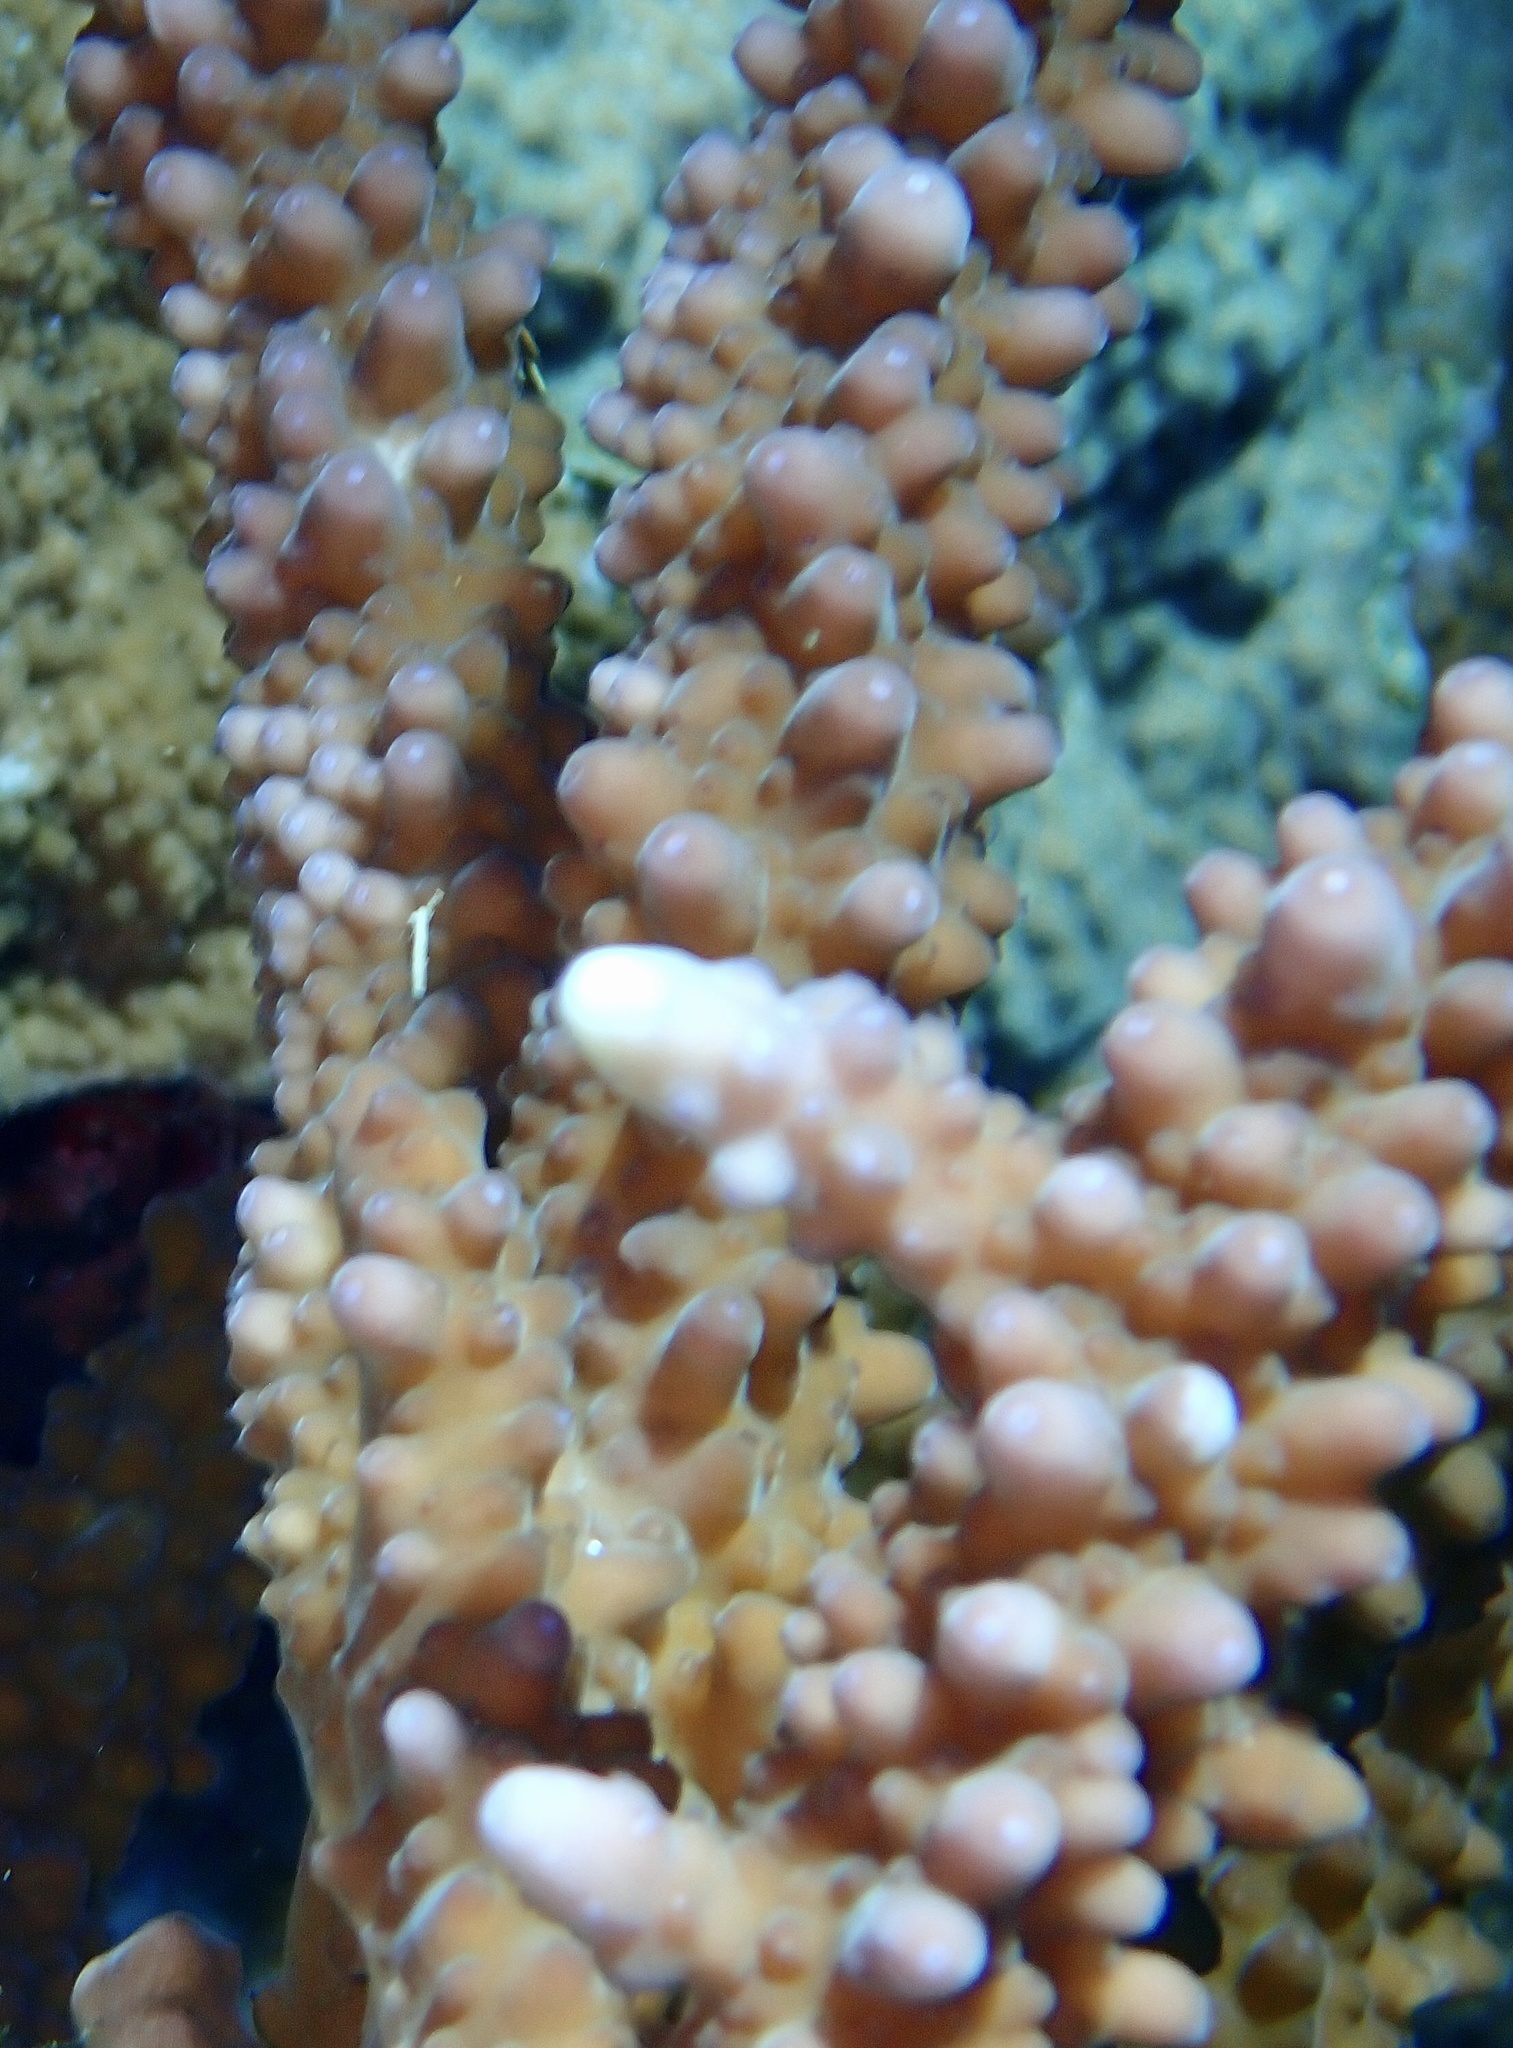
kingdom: Animalia
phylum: Cnidaria
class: Anthozoa
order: Scleractinia
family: Acroporidae
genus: Acropora
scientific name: Acropora hemprichii
